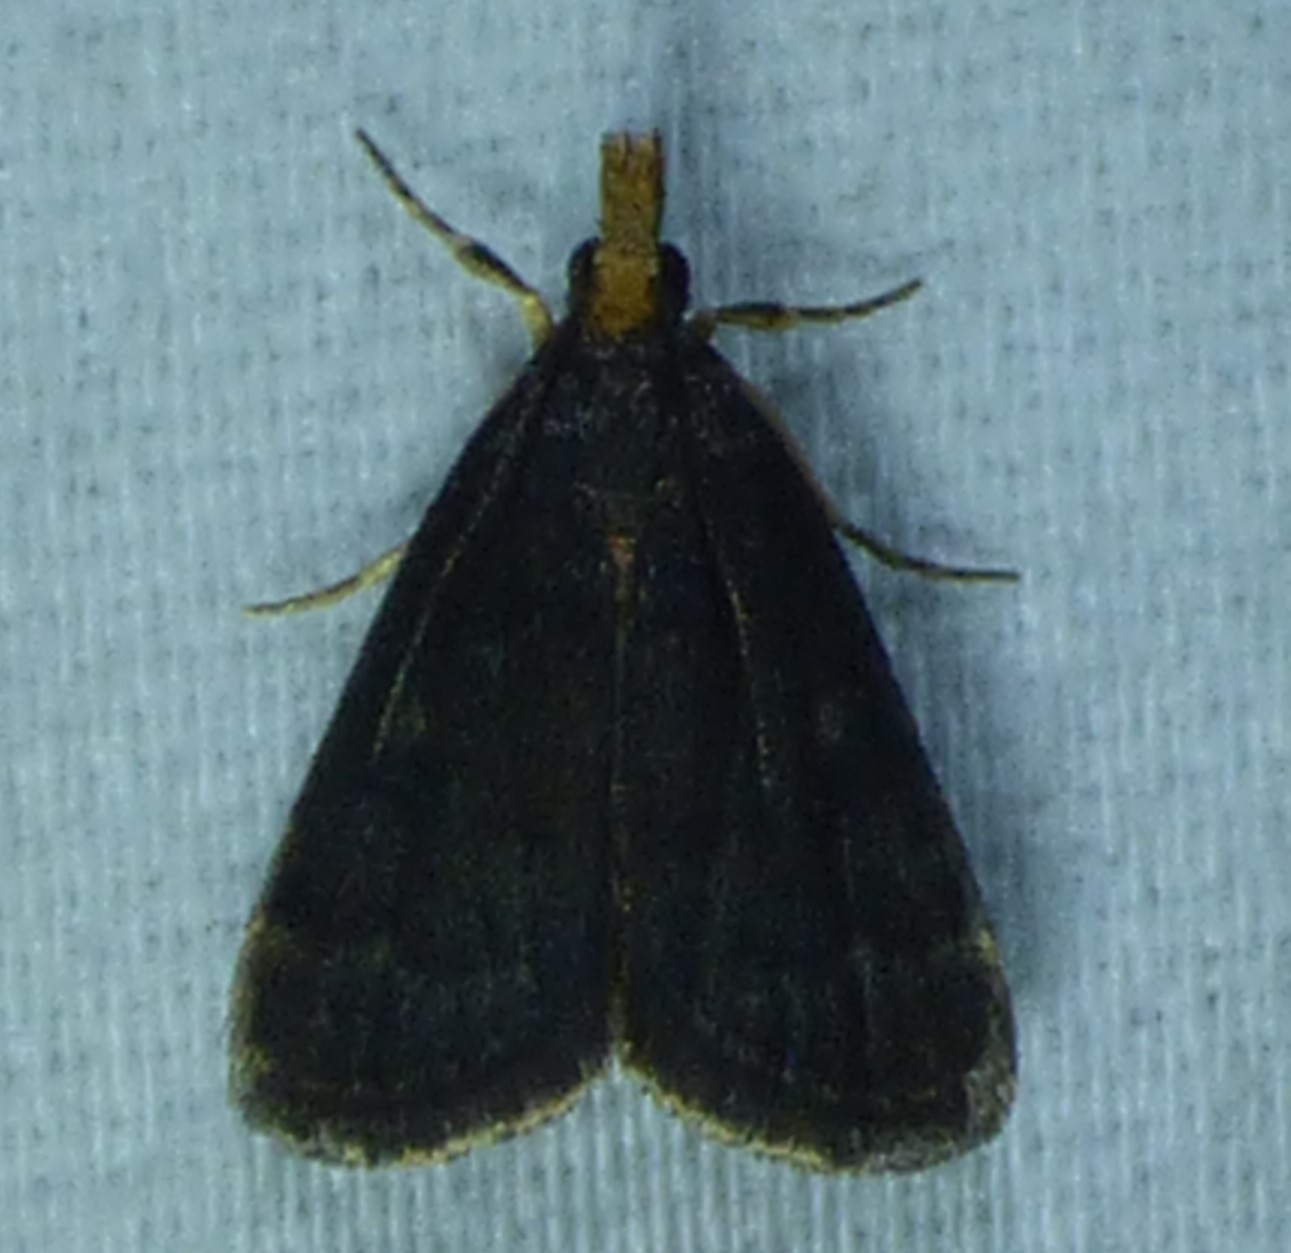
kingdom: Animalia
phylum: Arthropoda
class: Insecta
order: Lepidoptera
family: Crambidae
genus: Pyrausta
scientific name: Pyrausta merrickalis
